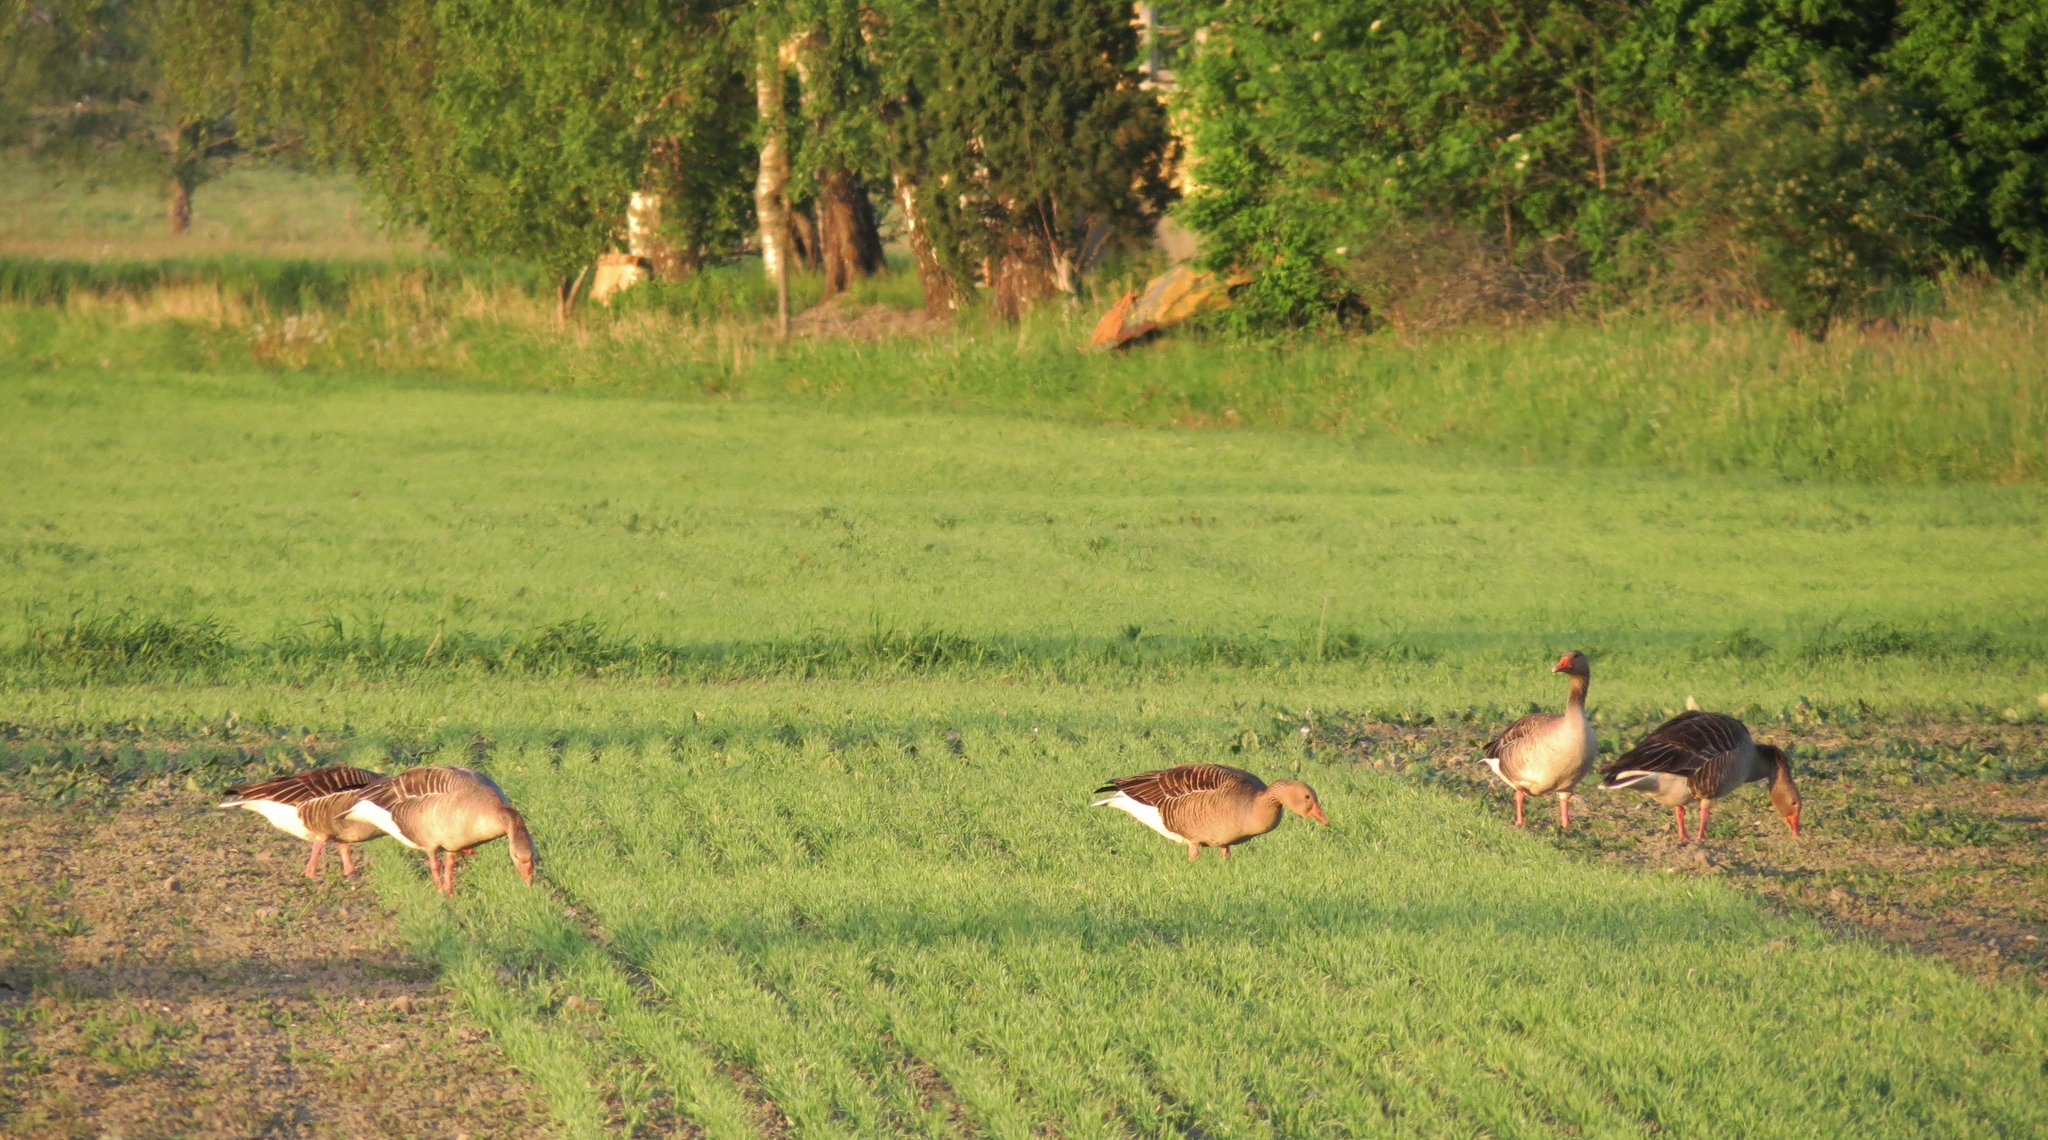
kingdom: Animalia
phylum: Chordata
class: Aves
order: Anseriformes
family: Anatidae
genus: Anser
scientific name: Anser anser
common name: Greylag goose
